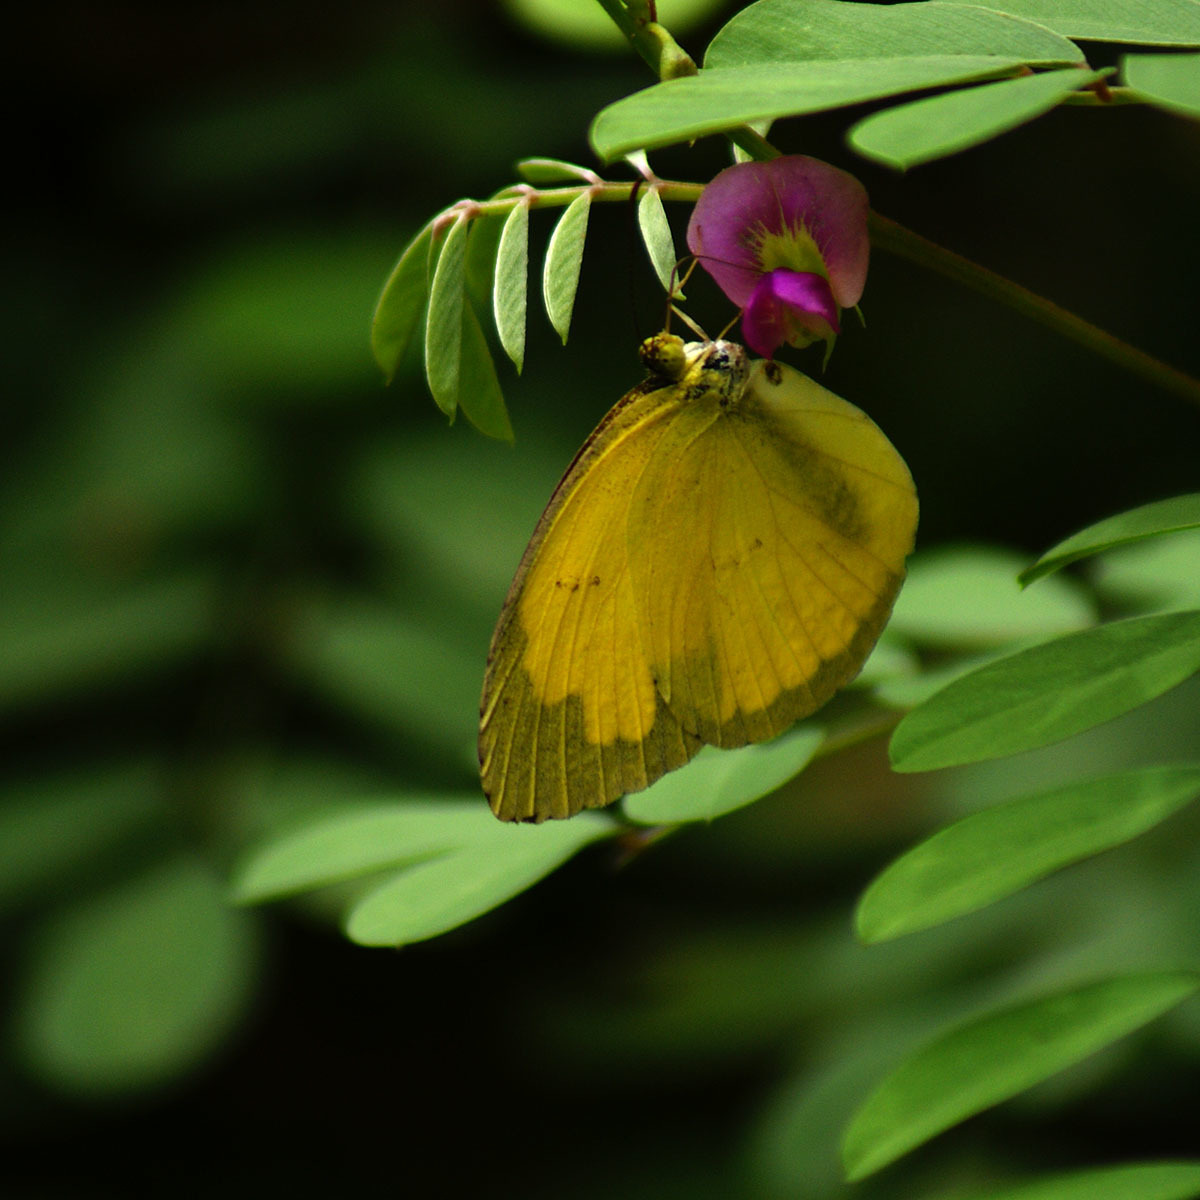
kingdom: Animalia
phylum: Arthropoda
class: Insecta
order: Lepidoptera
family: Pieridae
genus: Eurema
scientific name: Eurema hecabe
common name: Pale grass yellow
